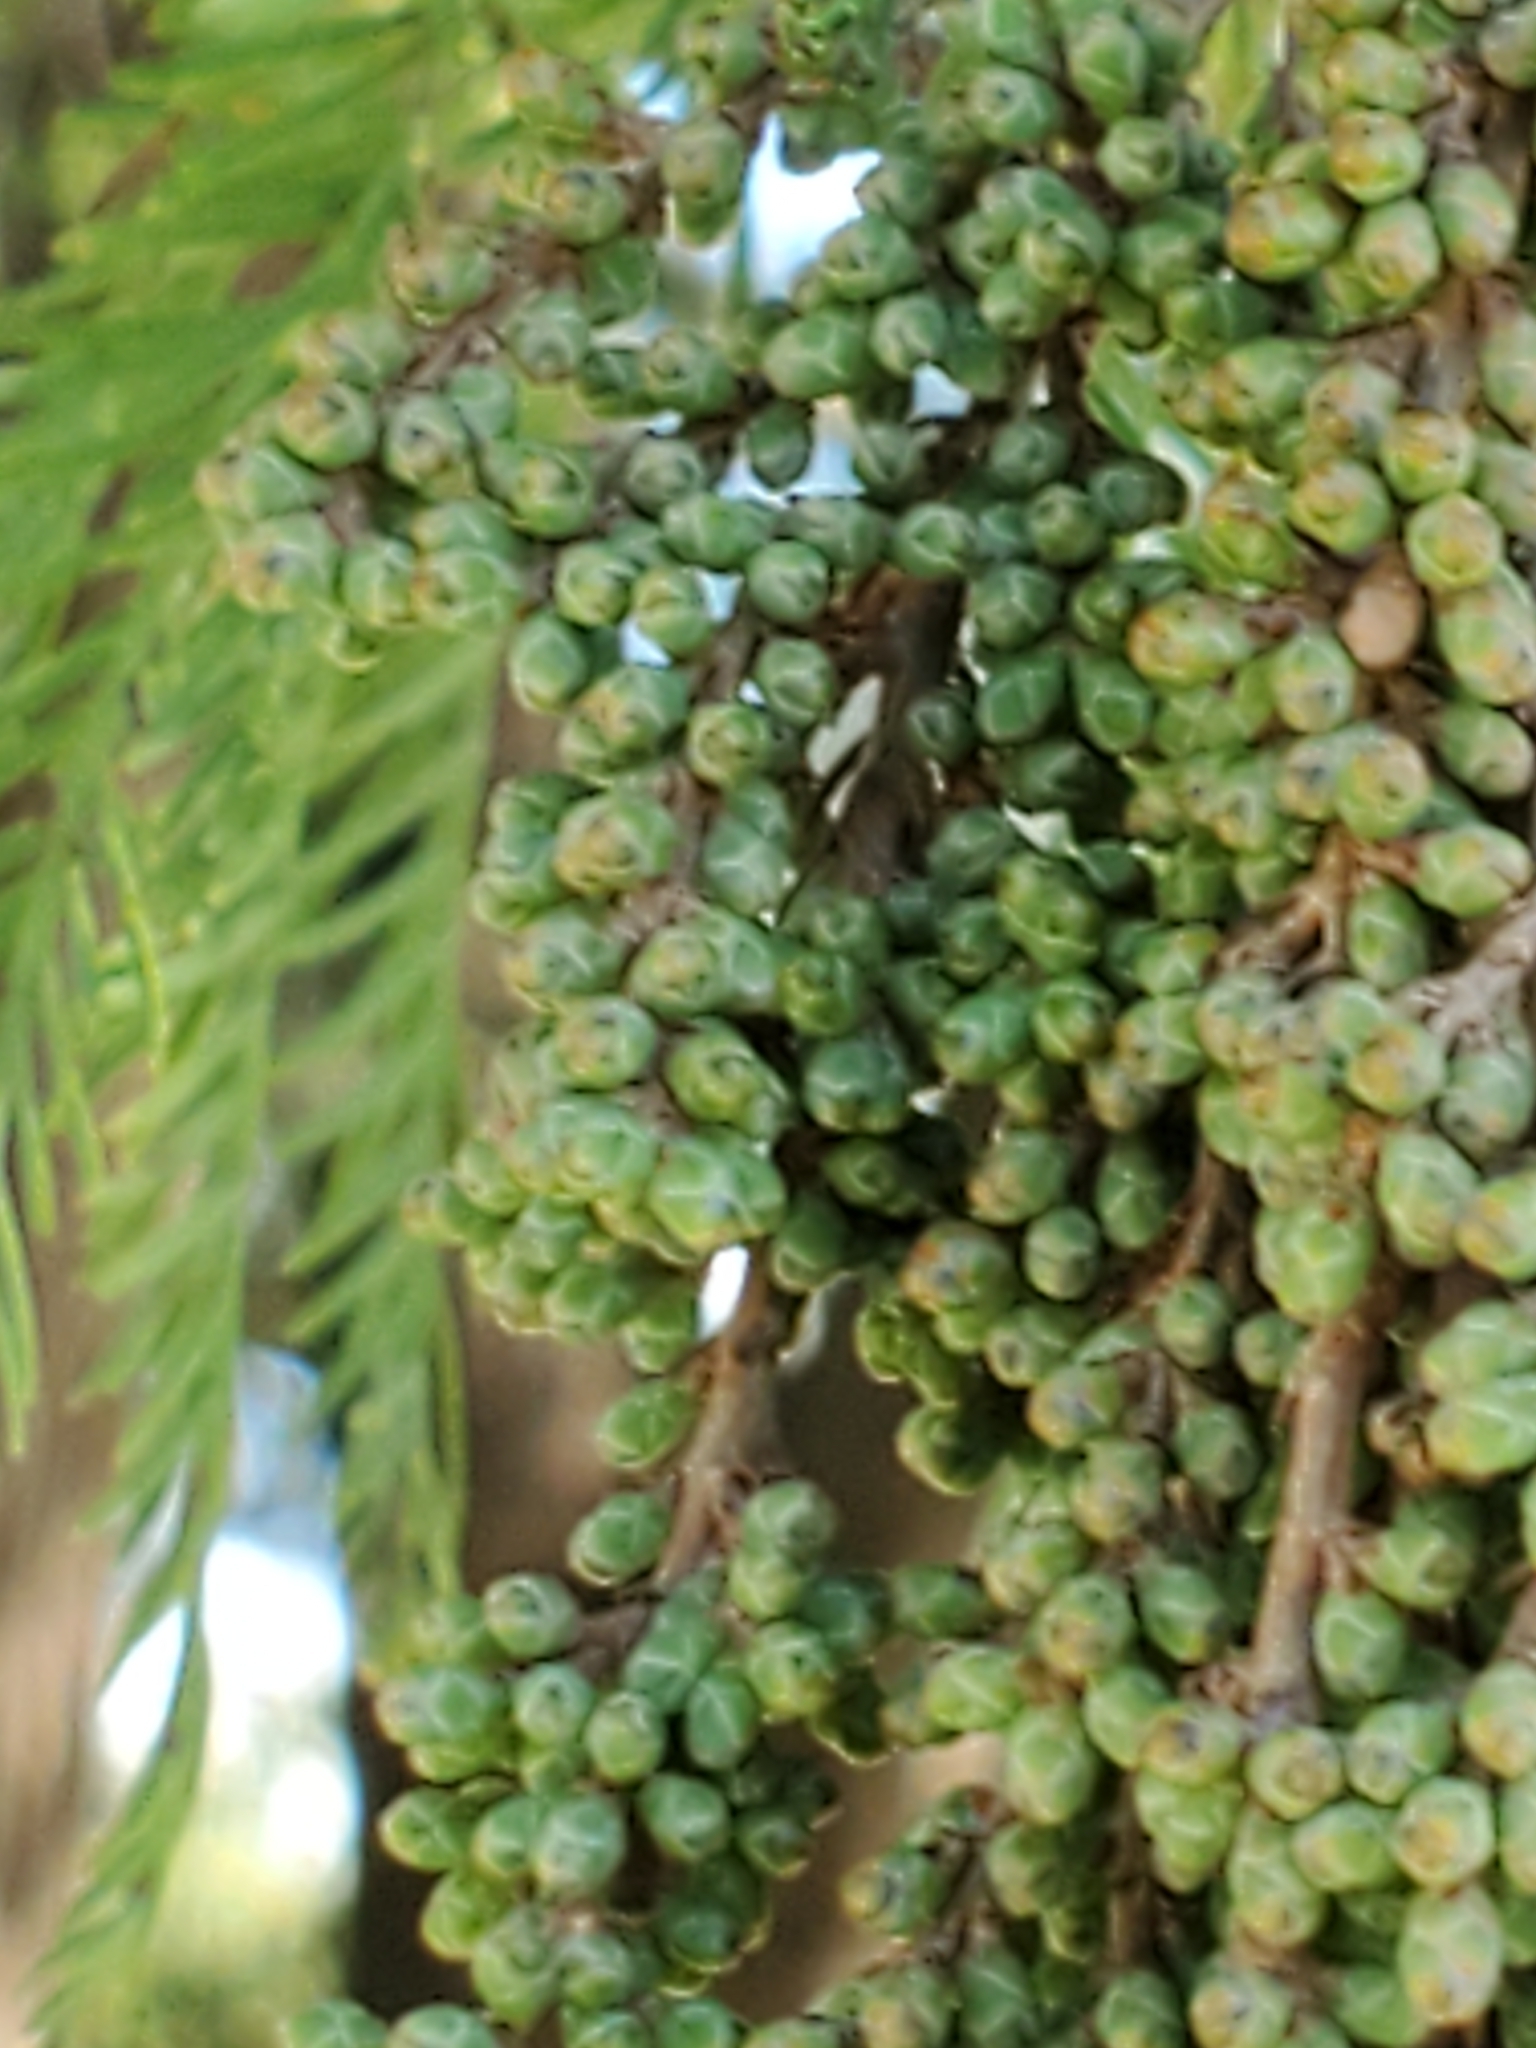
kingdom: Plantae
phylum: Tracheophyta
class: Pinopsida
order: Pinales
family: Cupressaceae
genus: Taxodium
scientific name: Taxodium distichum
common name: Bald cypress
